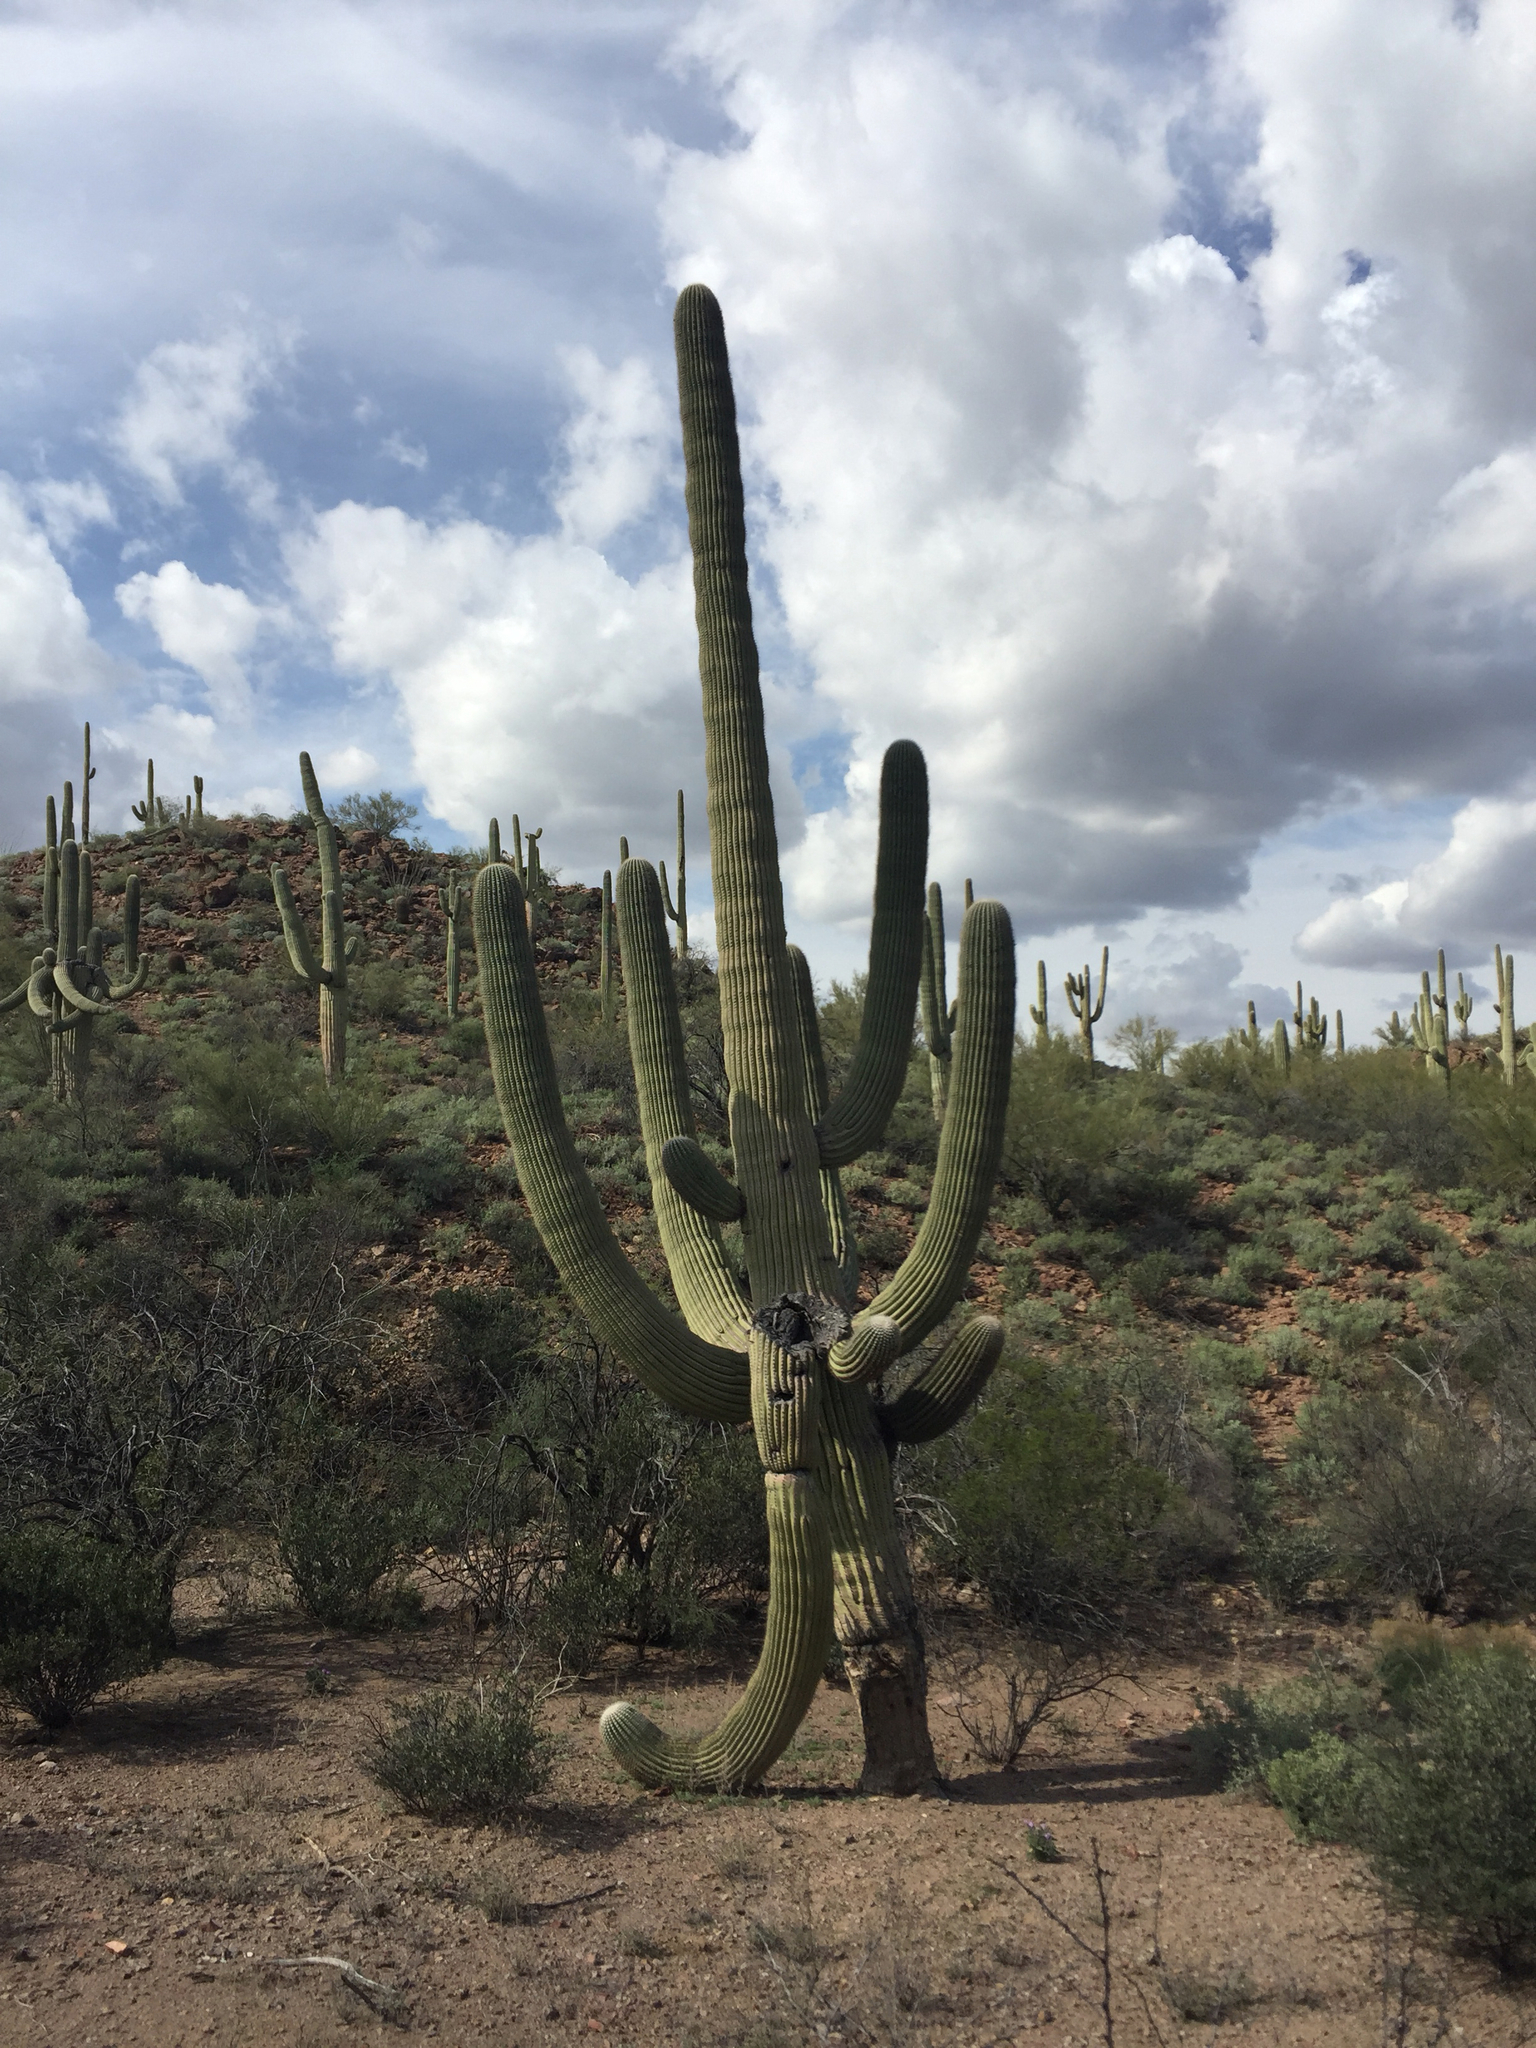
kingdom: Plantae
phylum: Tracheophyta
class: Magnoliopsida
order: Caryophyllales
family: Cactaceae
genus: Carnegiea
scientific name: Carnegiea gigantea
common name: Saguaro
